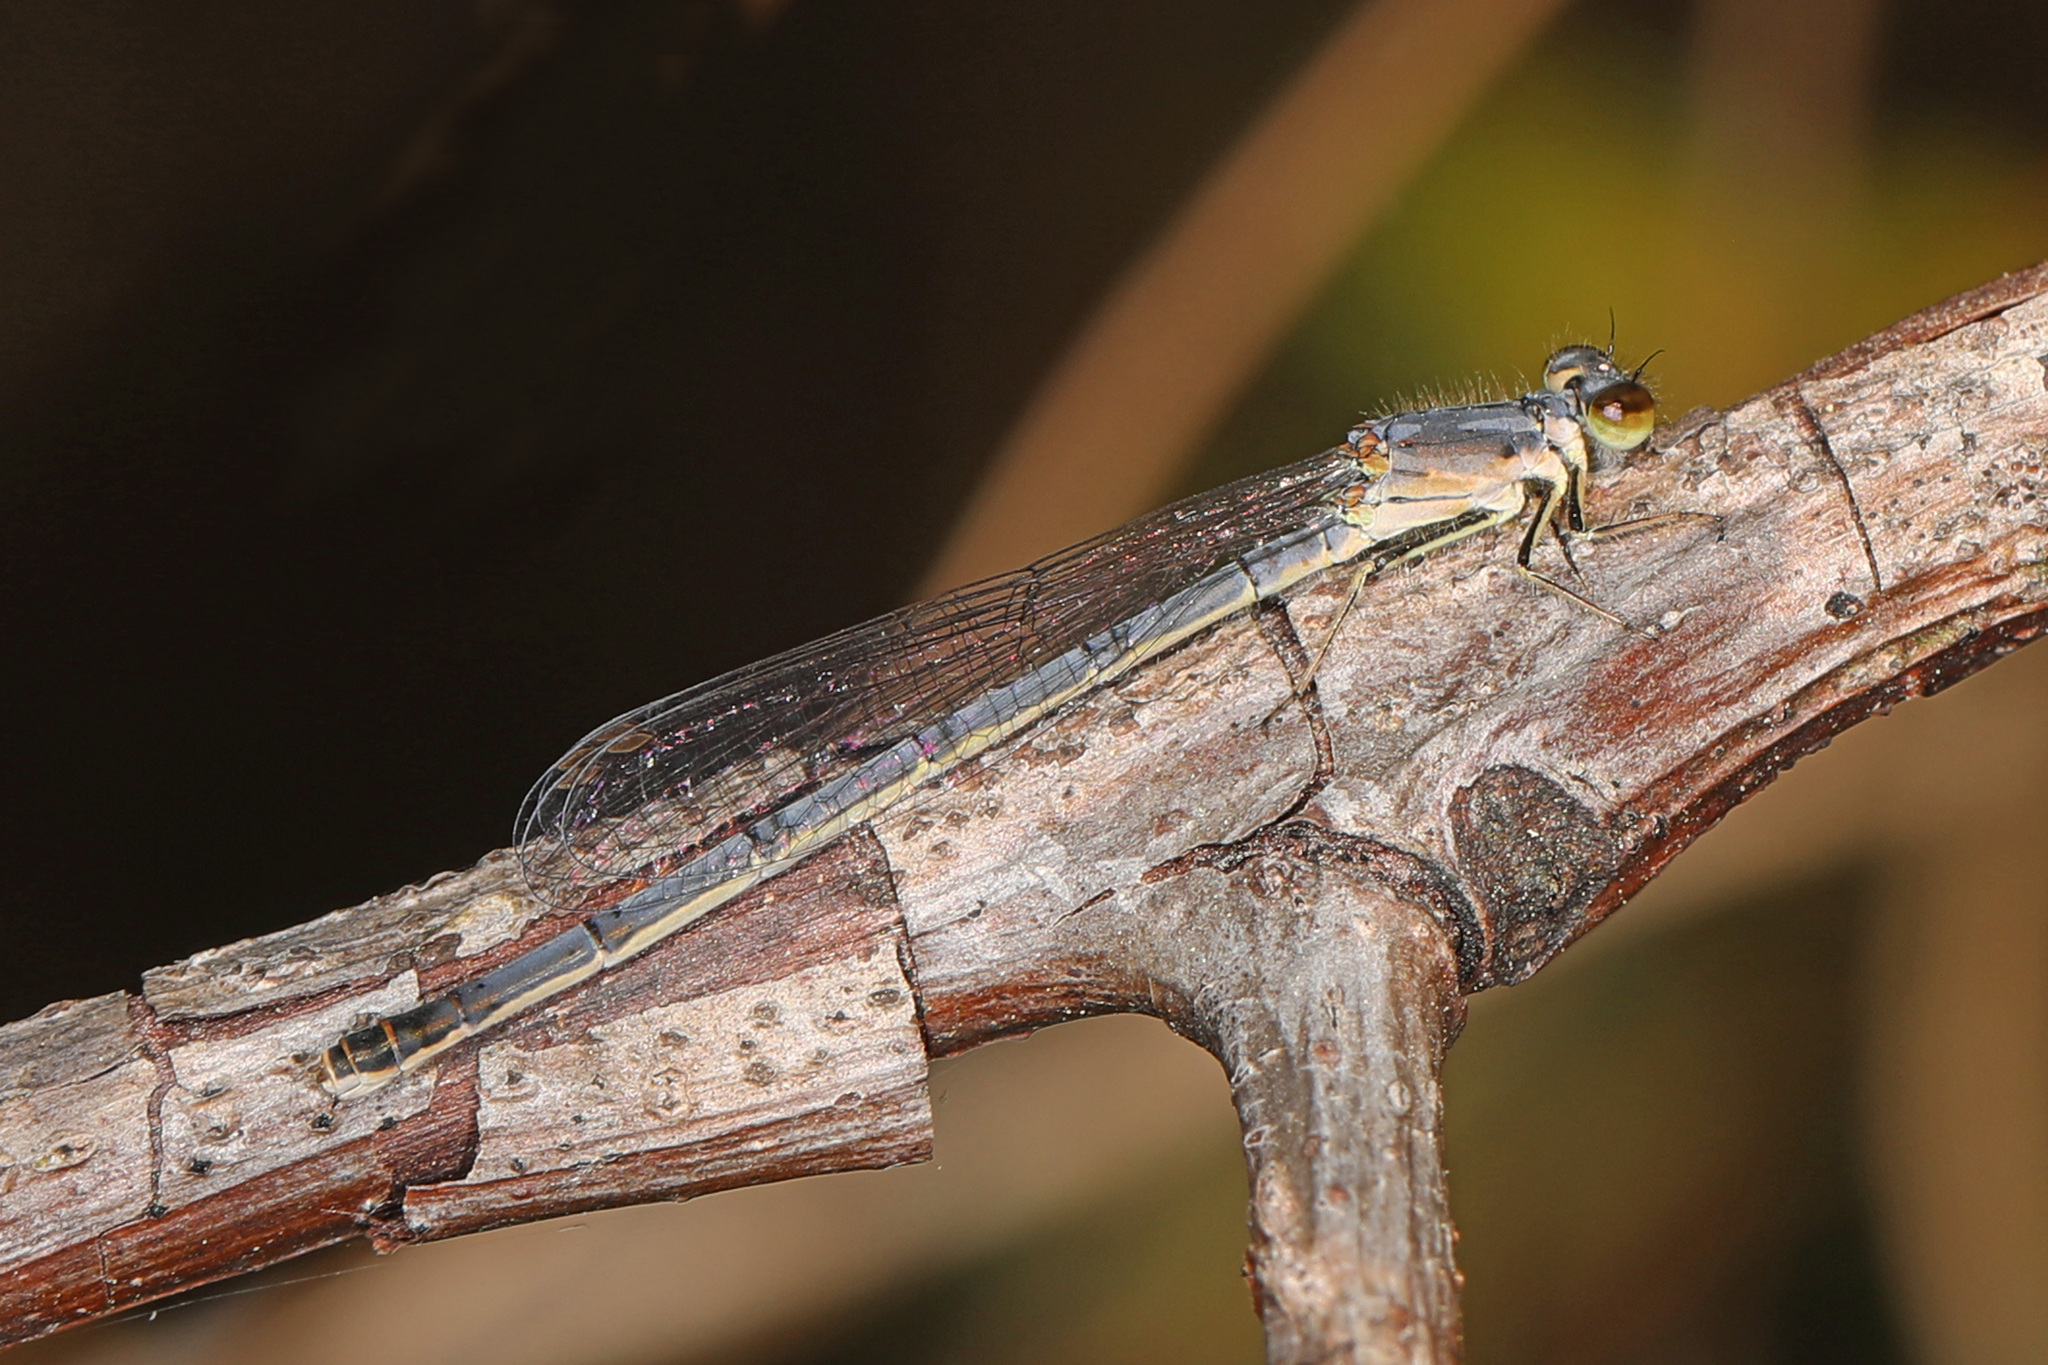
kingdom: Animalia
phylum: Arthropoda
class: Insecta
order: Odonata
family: Coenagrionidae
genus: Ischnura
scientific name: Ischnura posita
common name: Fragile forktail
